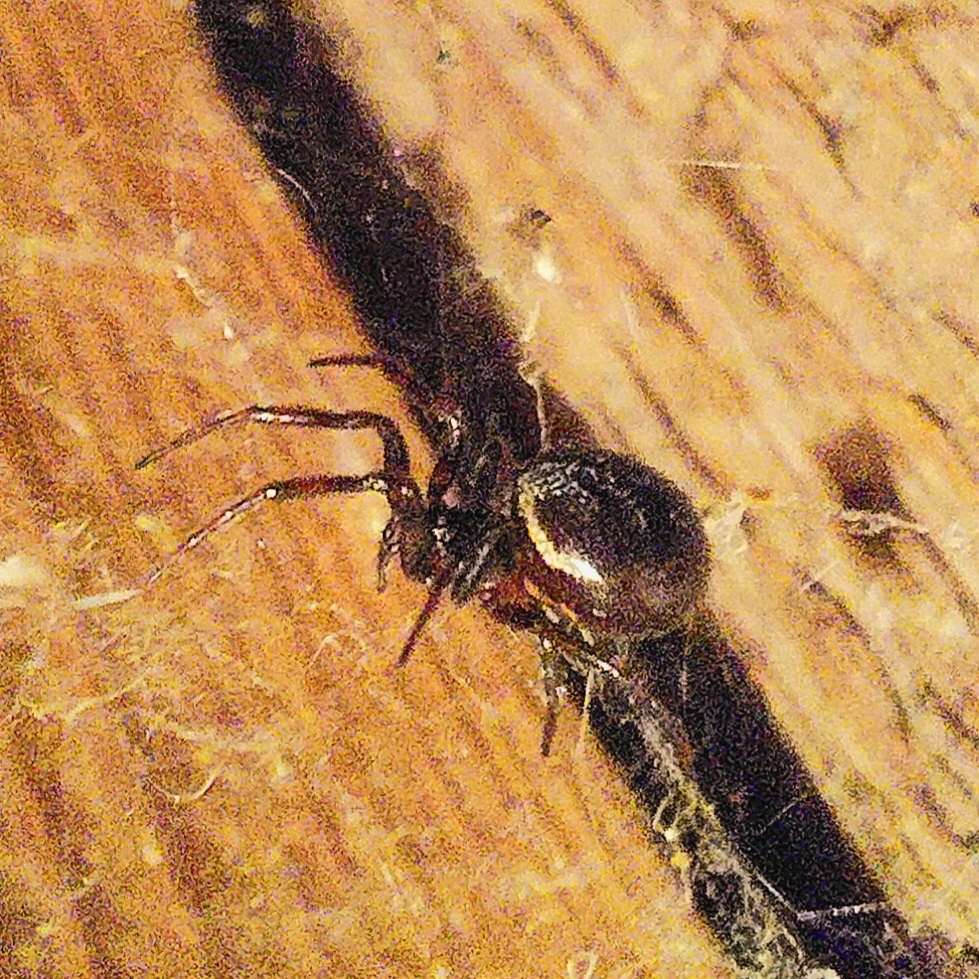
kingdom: Animalia
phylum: Arthropoda
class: Arachnida
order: Araneae
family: Theridiidae
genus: Steatoda
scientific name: Steatoda bipunctata
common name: False widow
